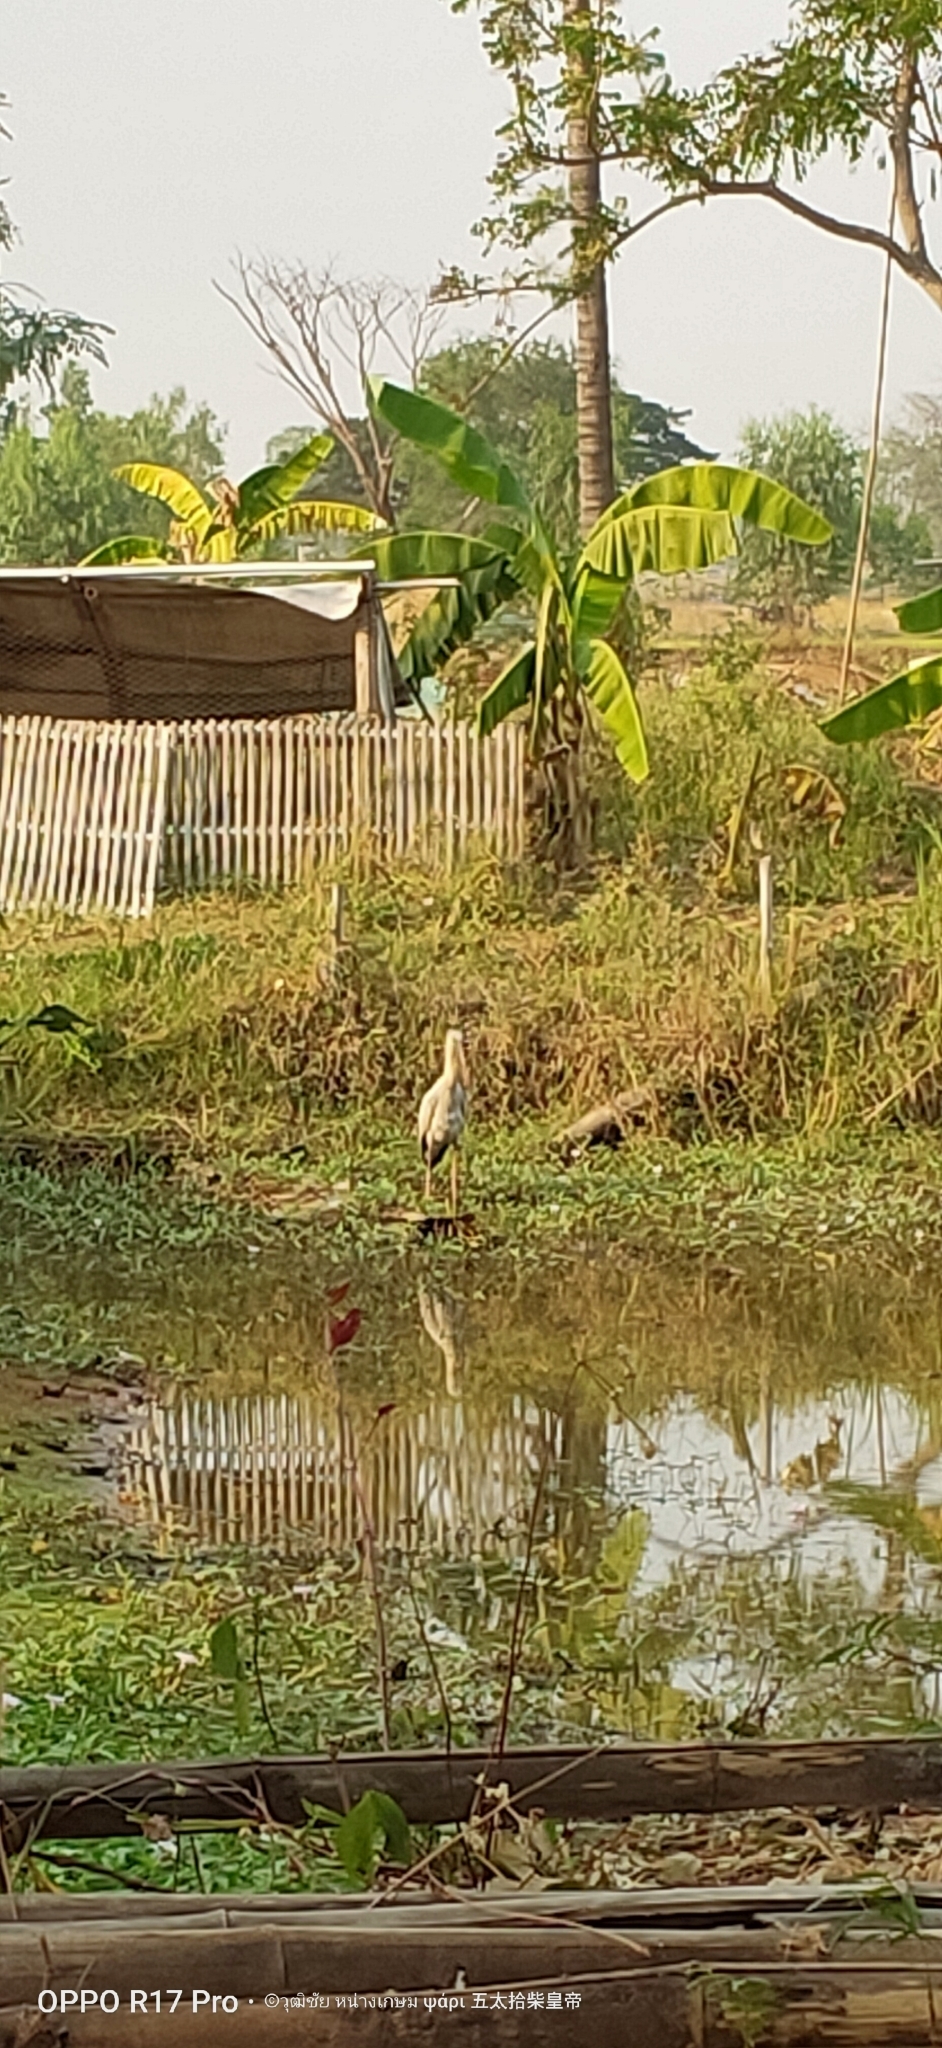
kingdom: Animalia
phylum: Chordata
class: Aves
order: Ciconiiformes
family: Ciconiidae
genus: Anastomus
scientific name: Anastomus oscitans
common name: Asian openbill
